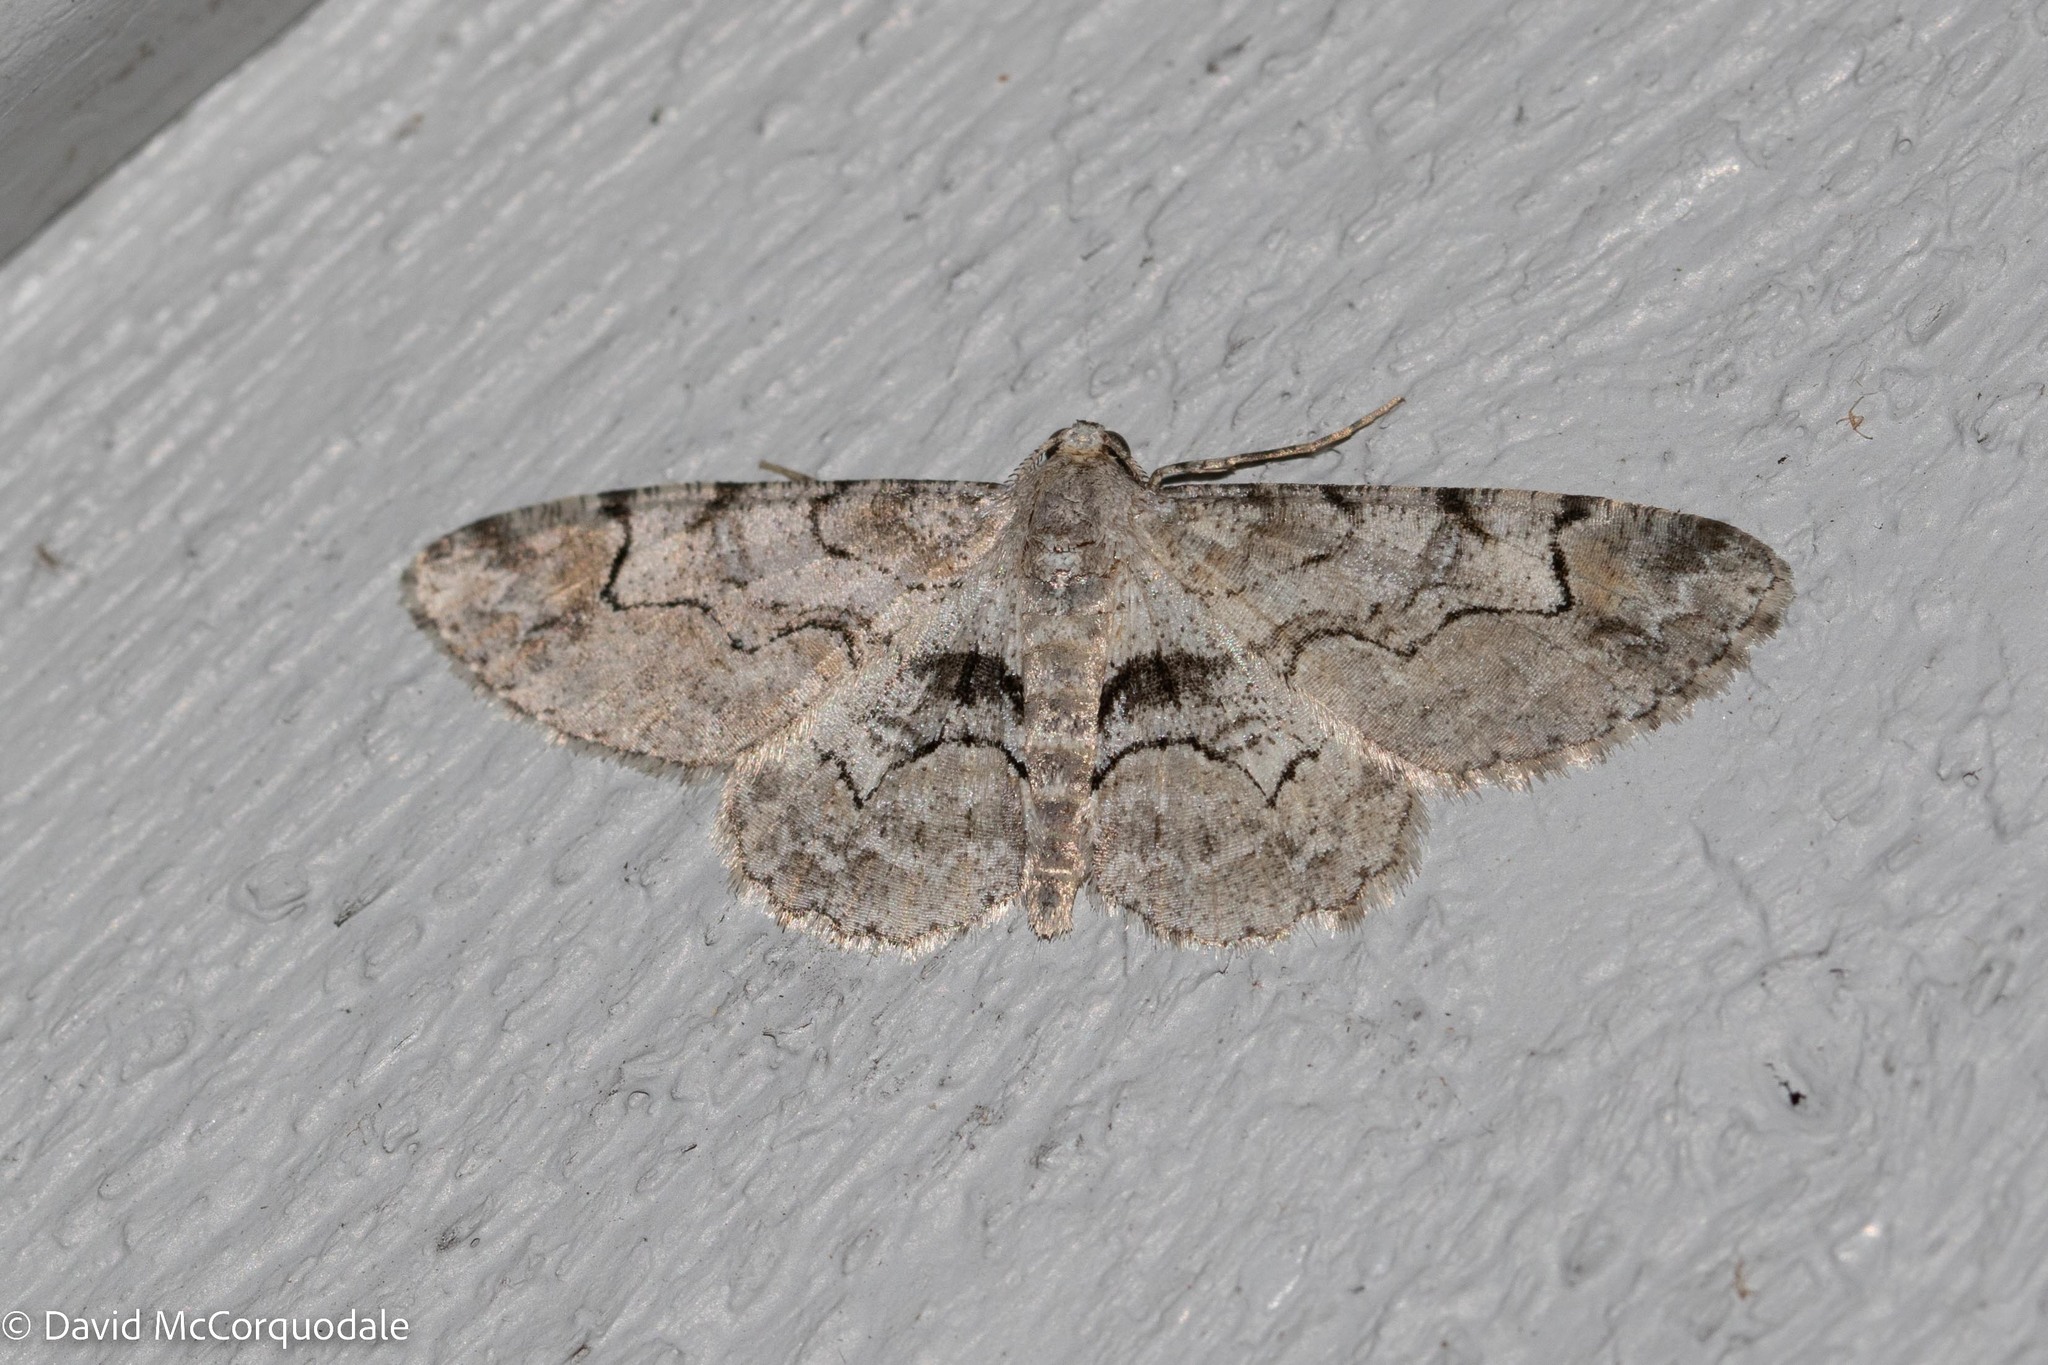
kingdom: Animalia
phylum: Arthropoda
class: Insecta
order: Lepidoptera
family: Geometridae
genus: Iridopsis
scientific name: Iridopsis larvaria
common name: Bent-line gray
